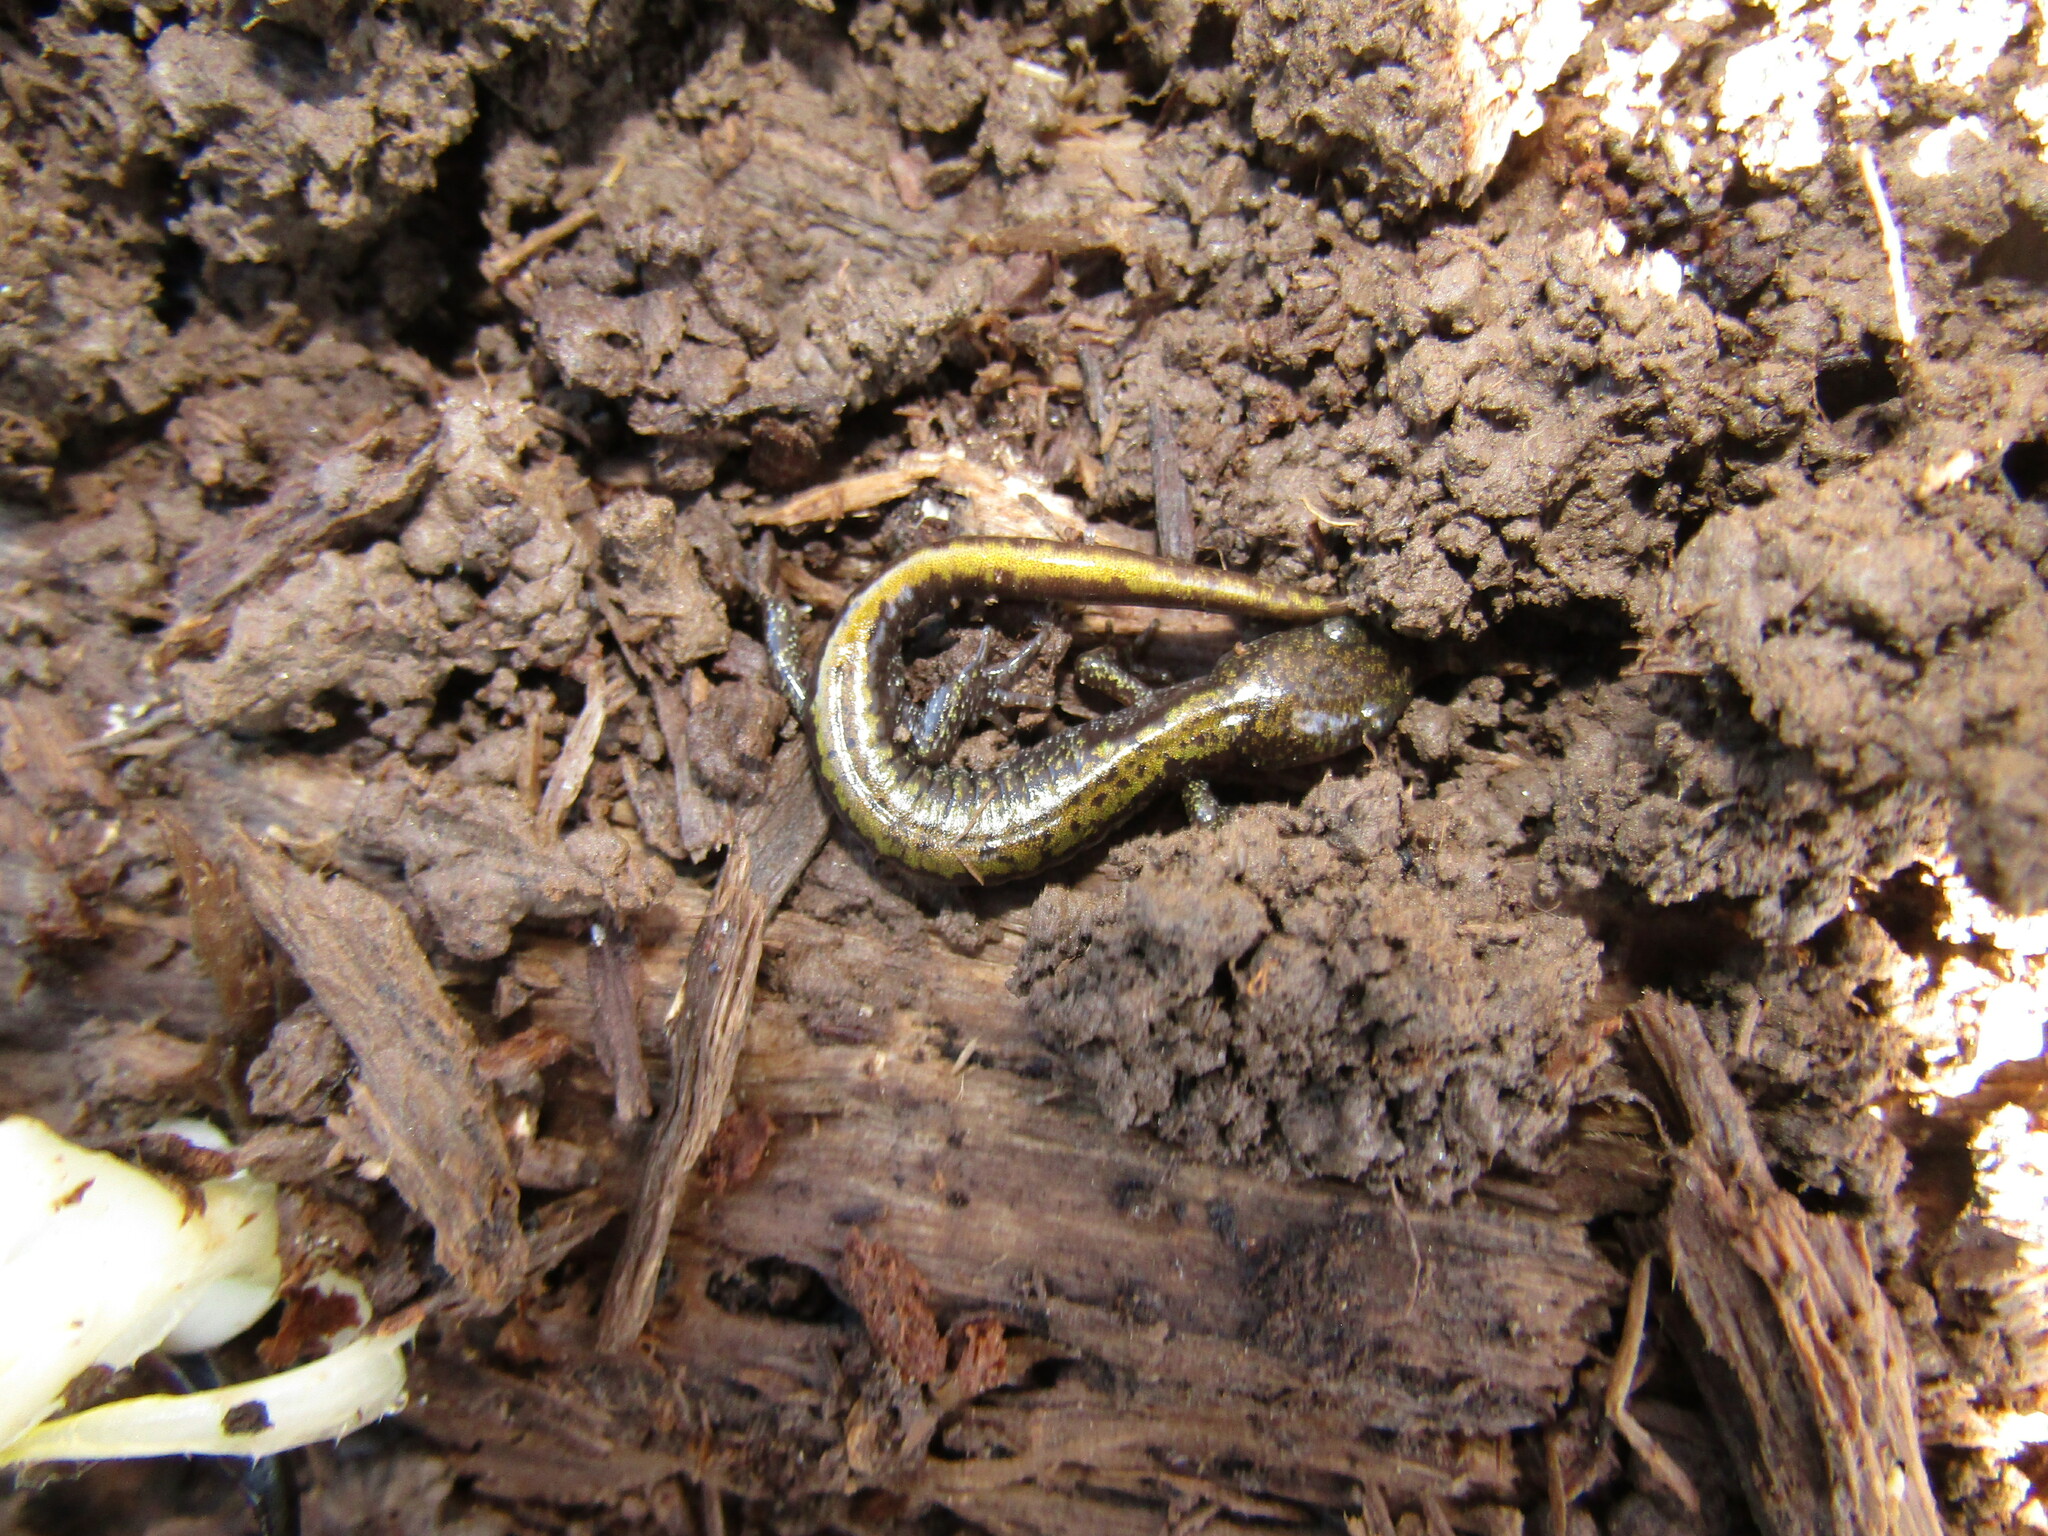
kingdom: Animalia
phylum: Chordata
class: Amphibia
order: Caudata
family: Ambystomatidae
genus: Ambystoma
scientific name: Ambystoma macrodactylum
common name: Long-toed salamander
